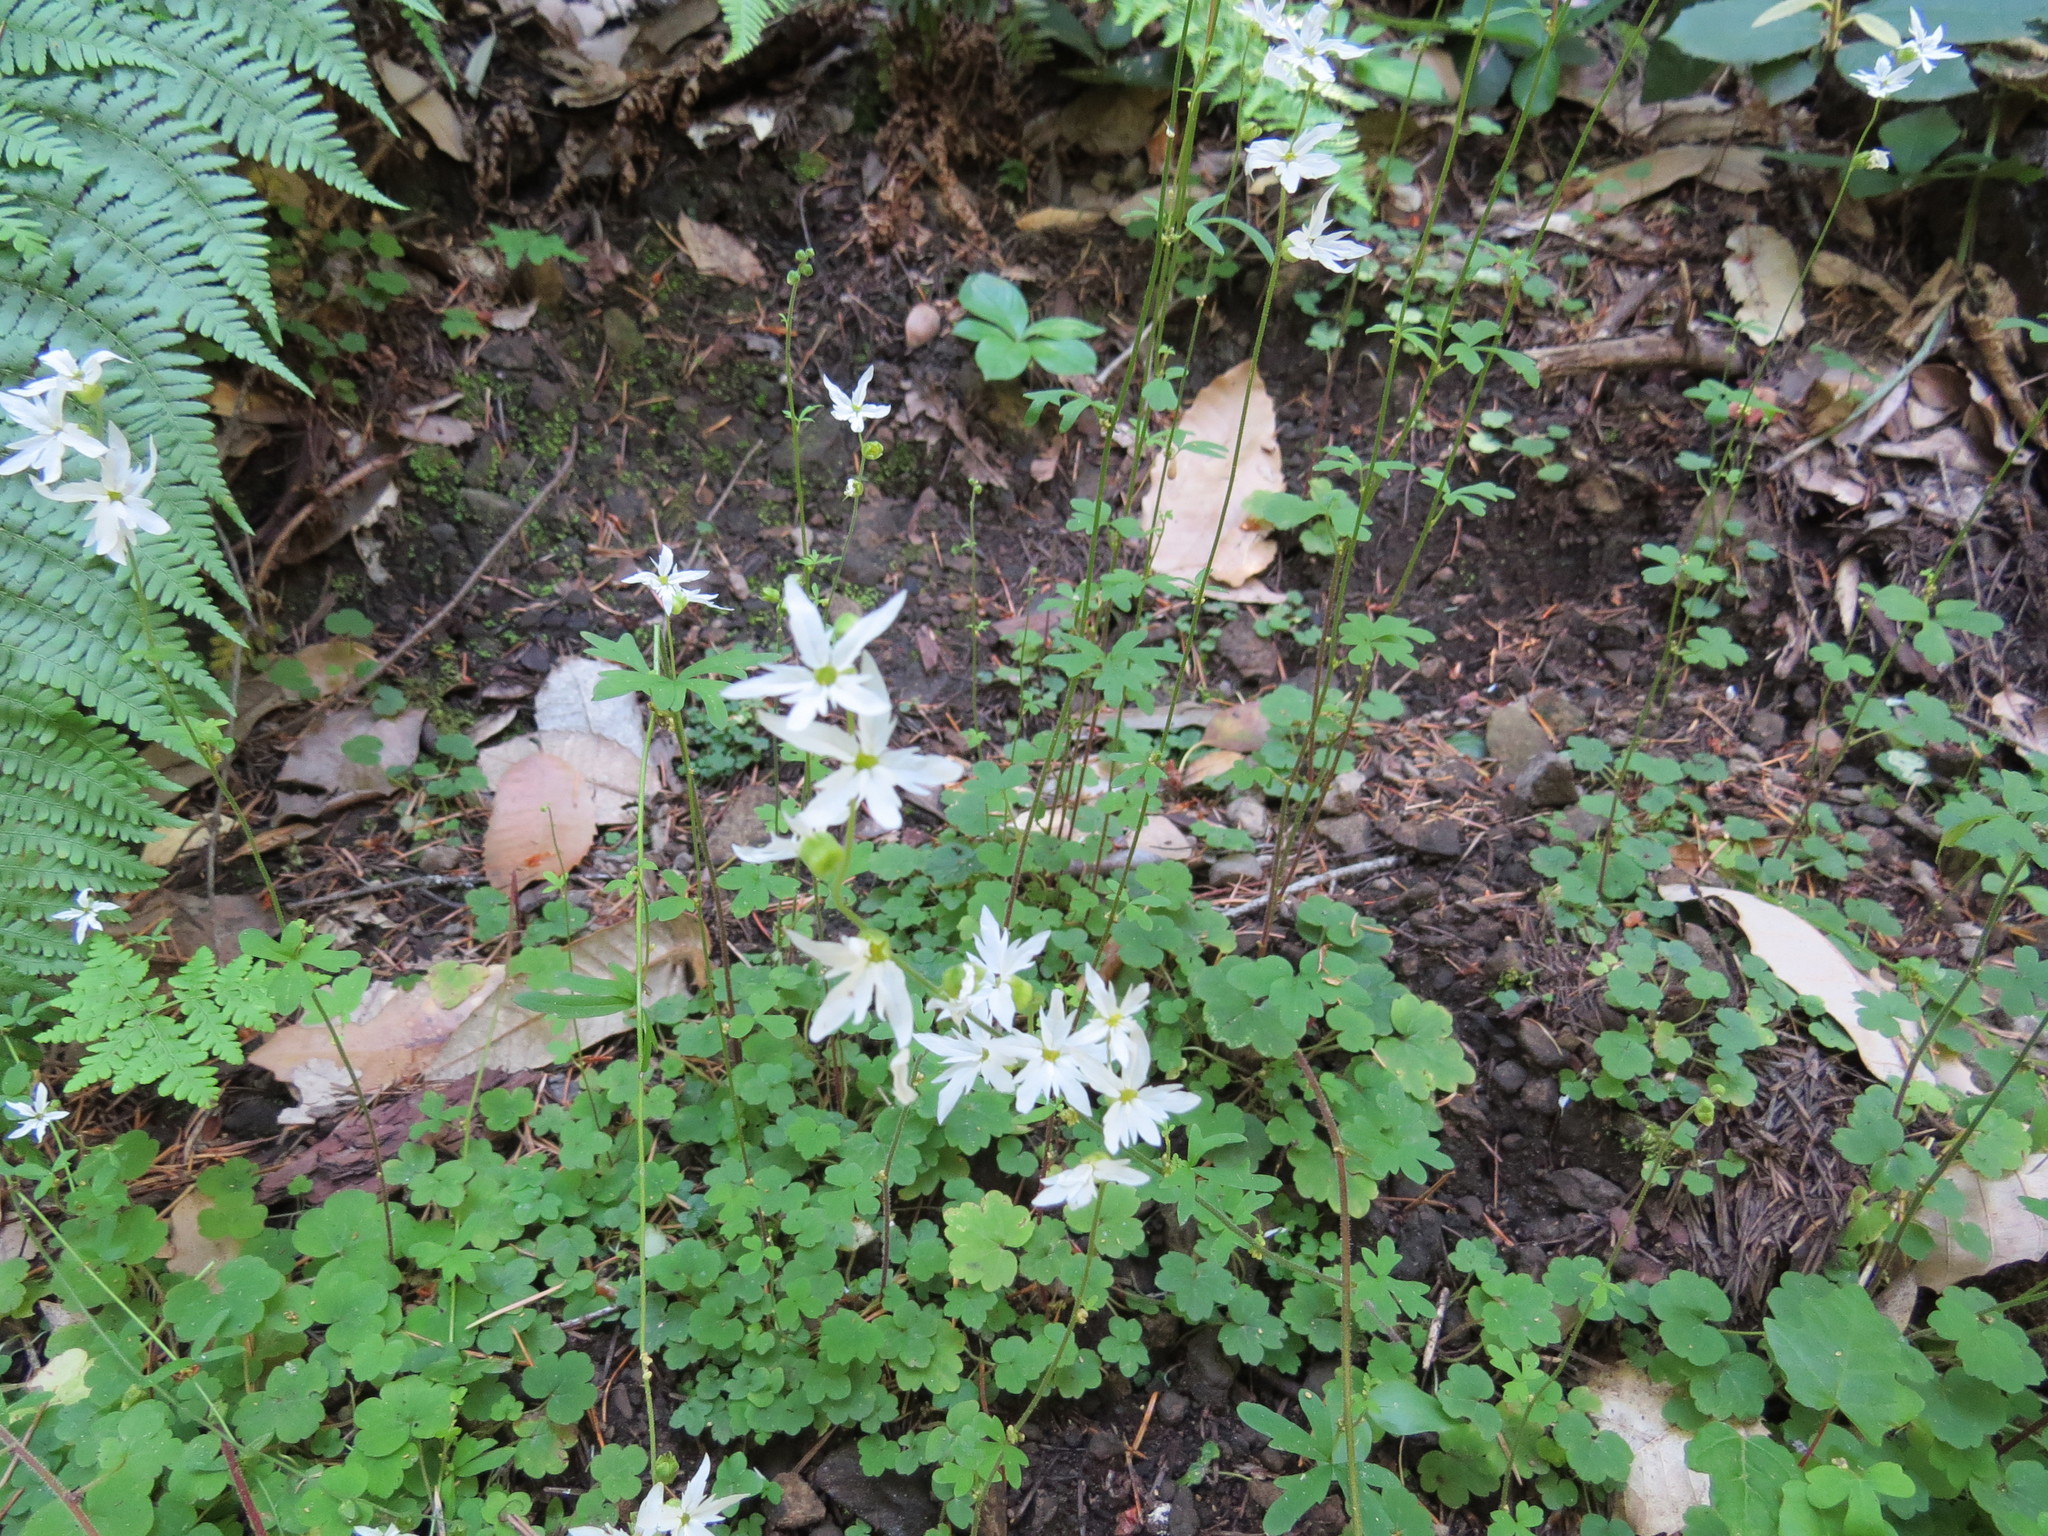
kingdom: Plantae
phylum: Tracheophyta
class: Magnoliopsida
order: Saxifragales
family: Saxifragaceae
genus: Lithophragma
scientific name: Lithophragma heterophyllum
